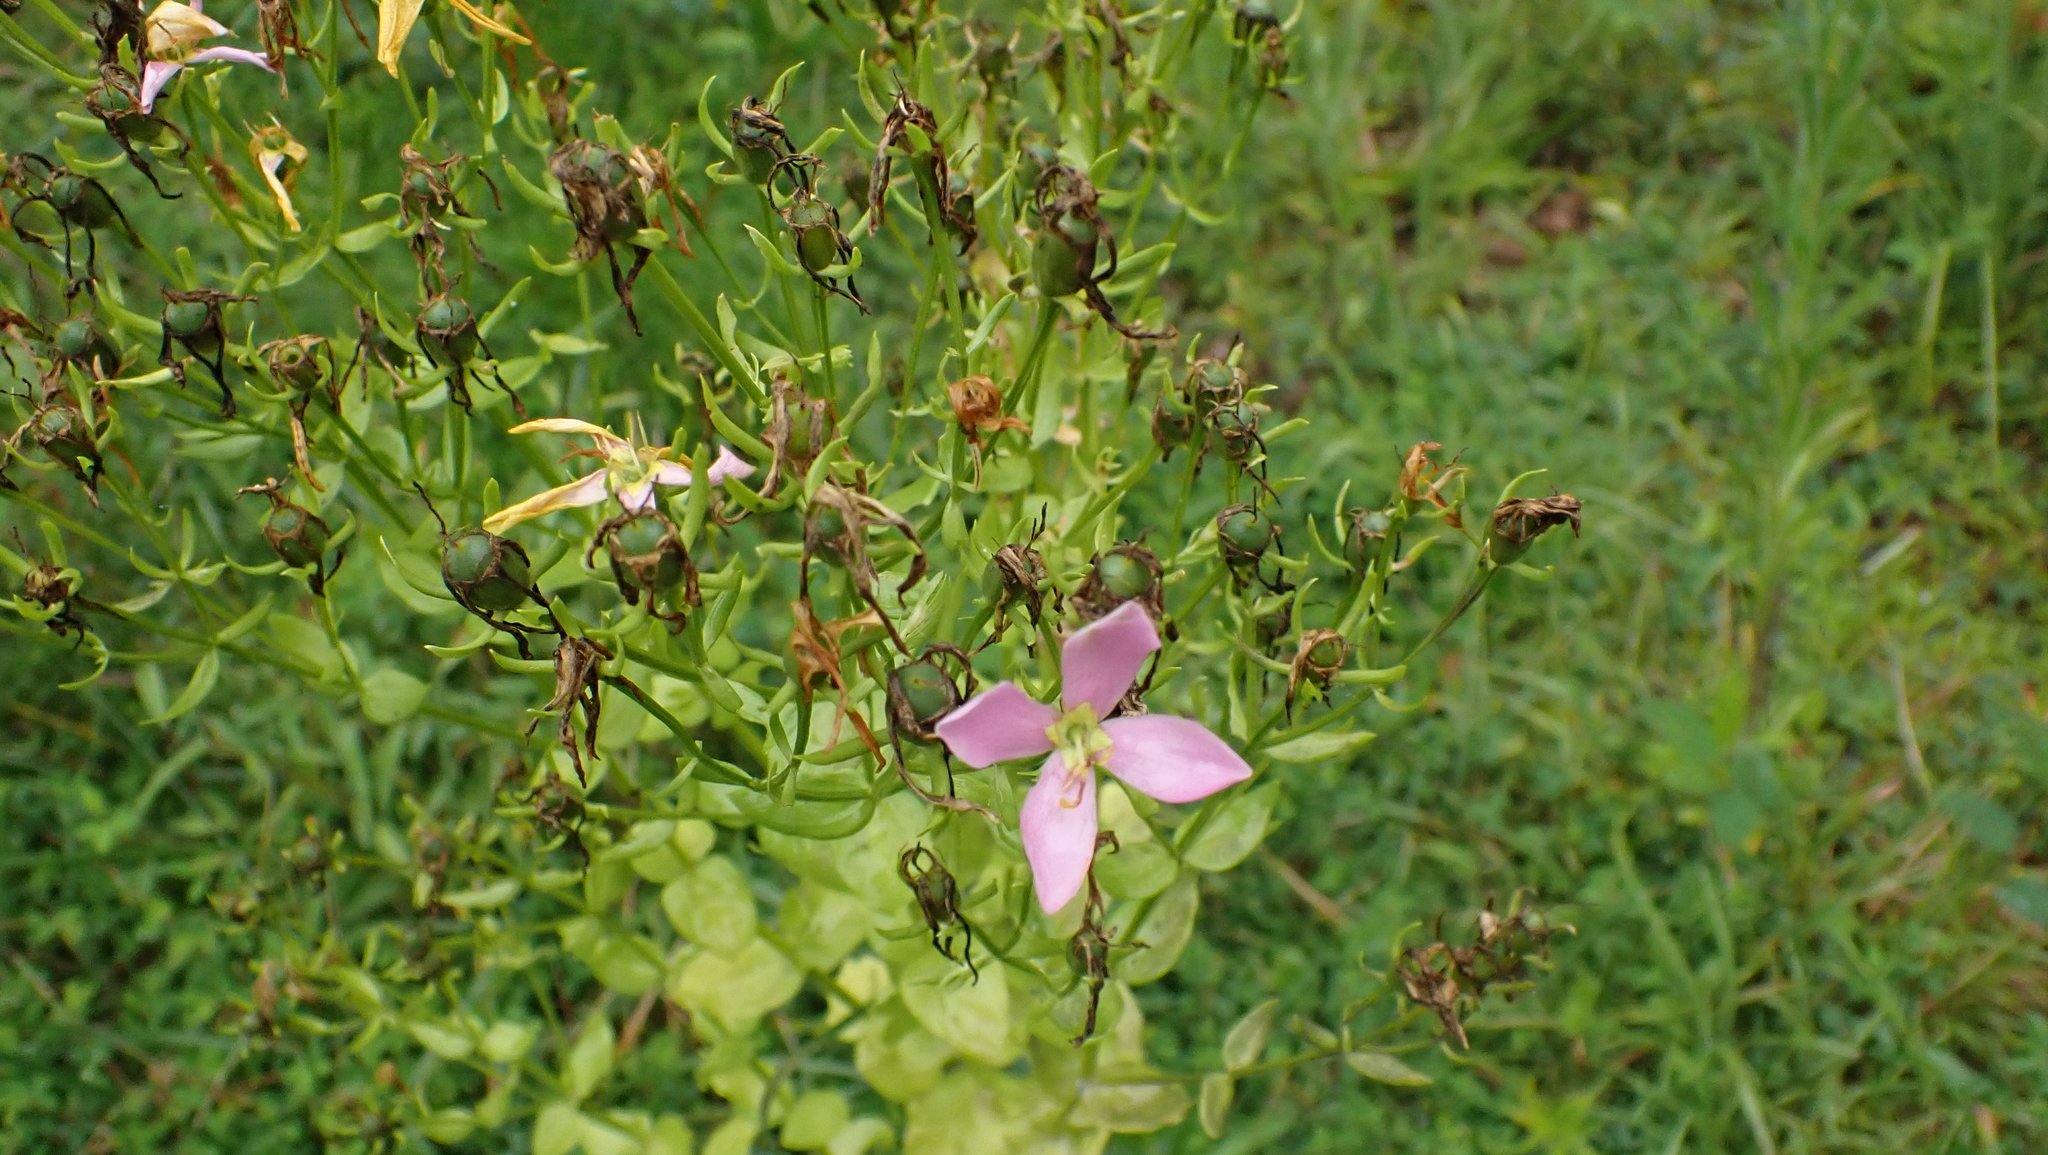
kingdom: Plantae
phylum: Tracheophyta
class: Magnoliopsida
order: Gentianales
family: Gentianaceae
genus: Sabatia
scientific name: Sabatia angularis
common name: Rose-pink
